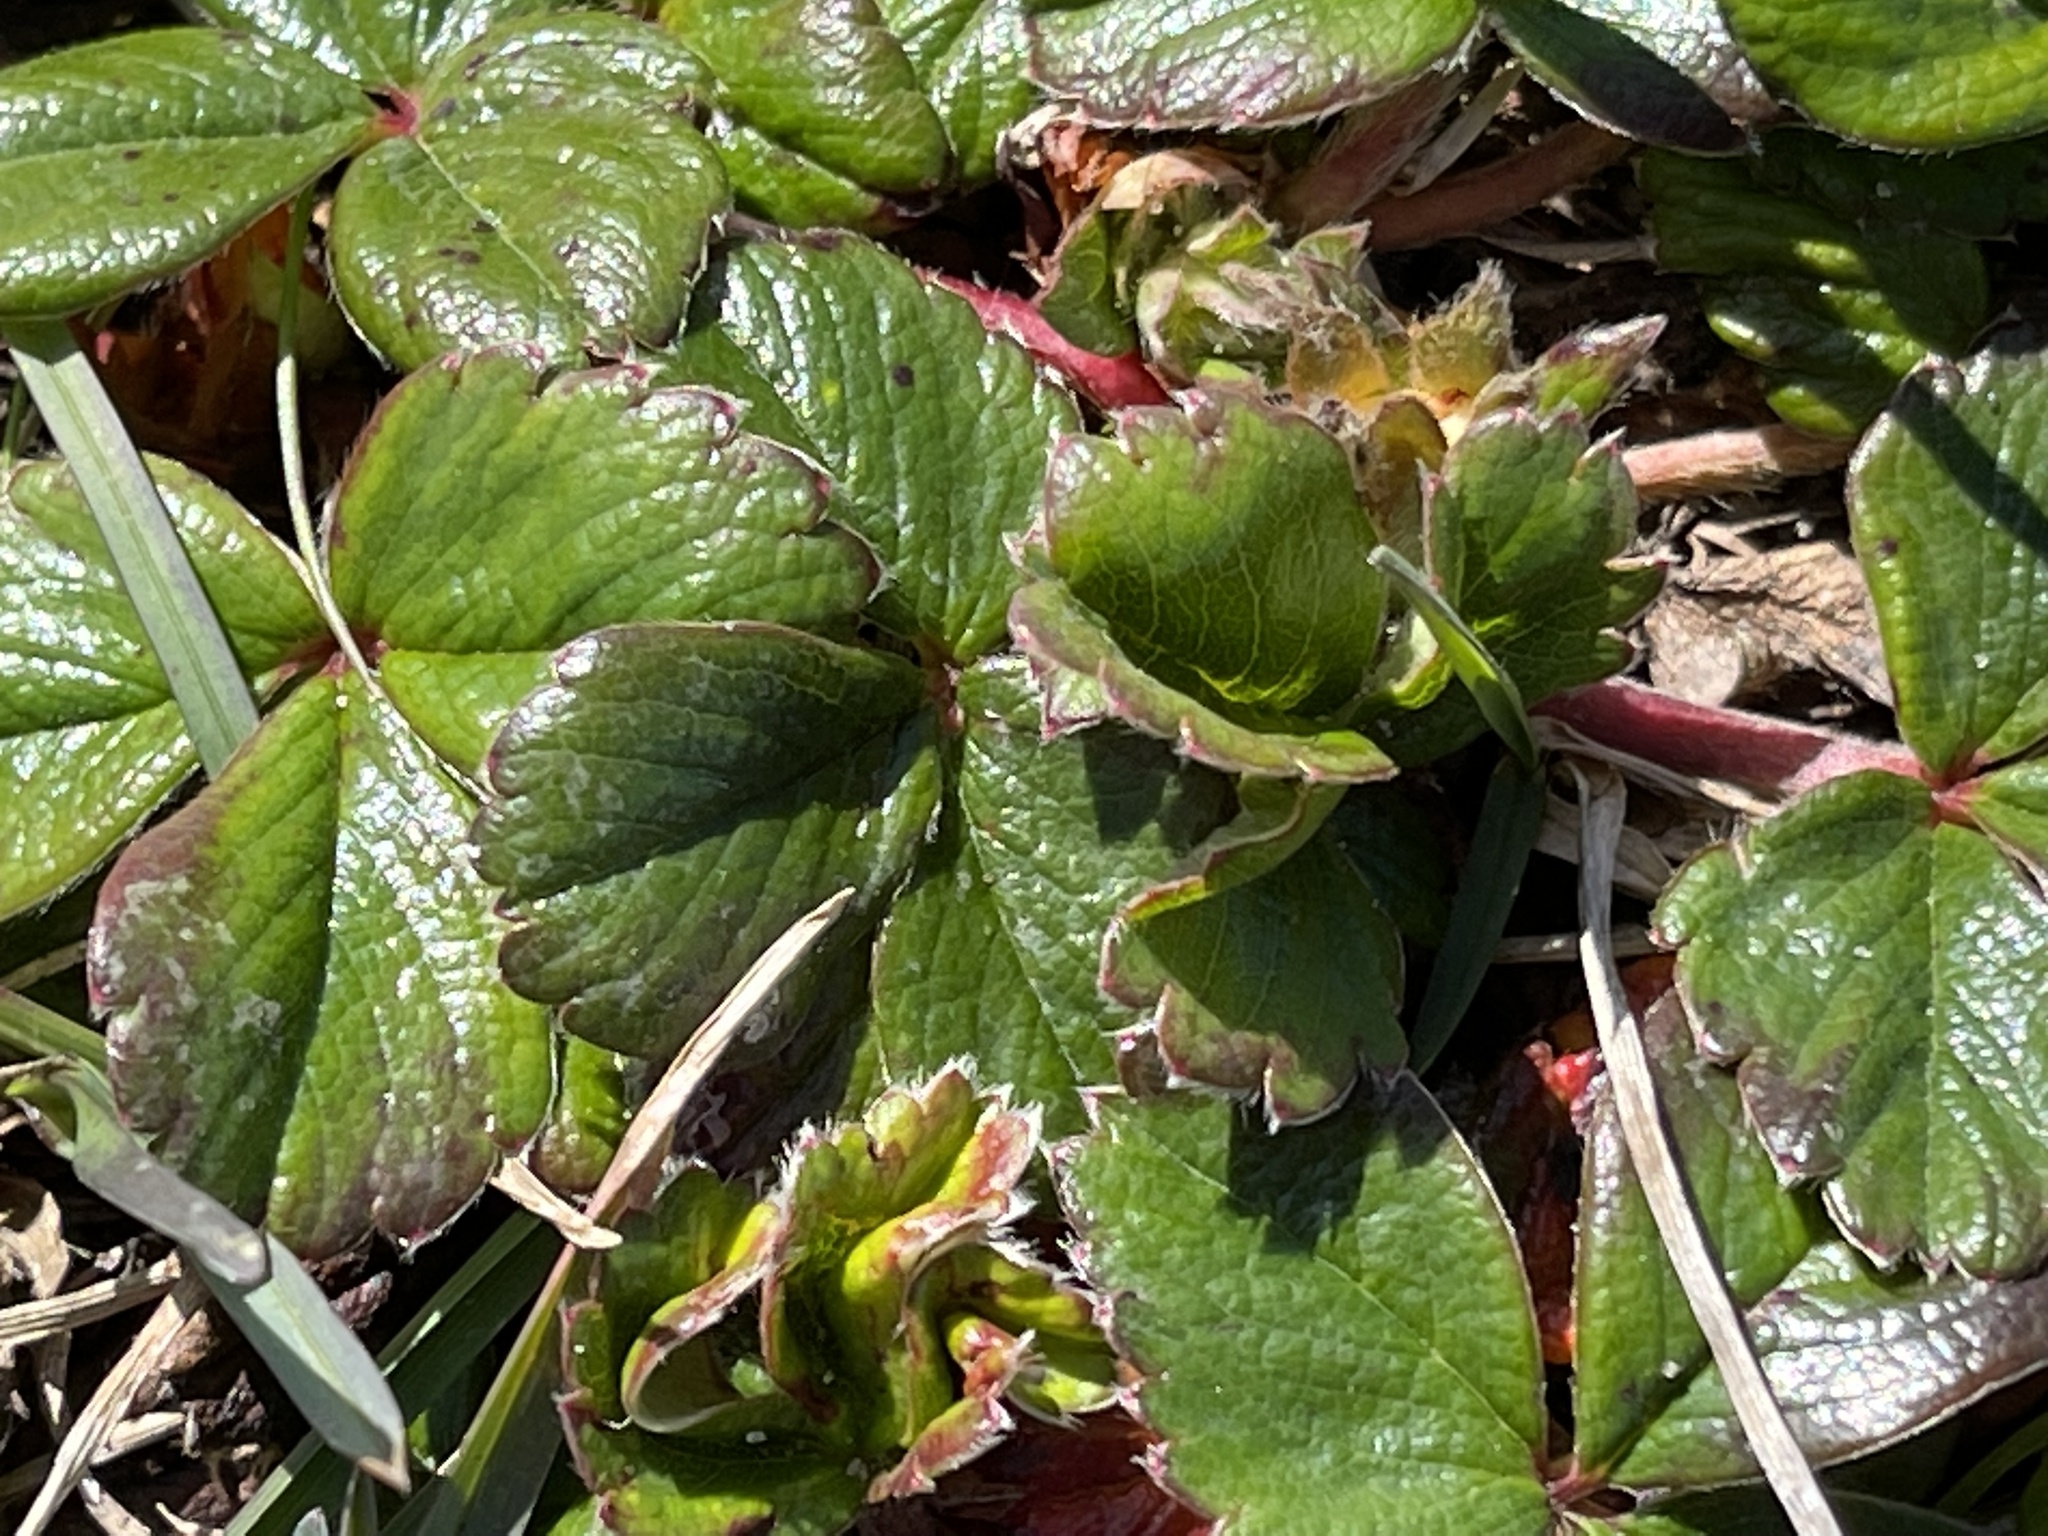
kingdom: Plantae
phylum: Tracheophyta
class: Magnoliopsida
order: Rosales
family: Rosaceae
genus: Fragaria
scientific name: Fragaria chiloensis
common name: Beach strawberry
